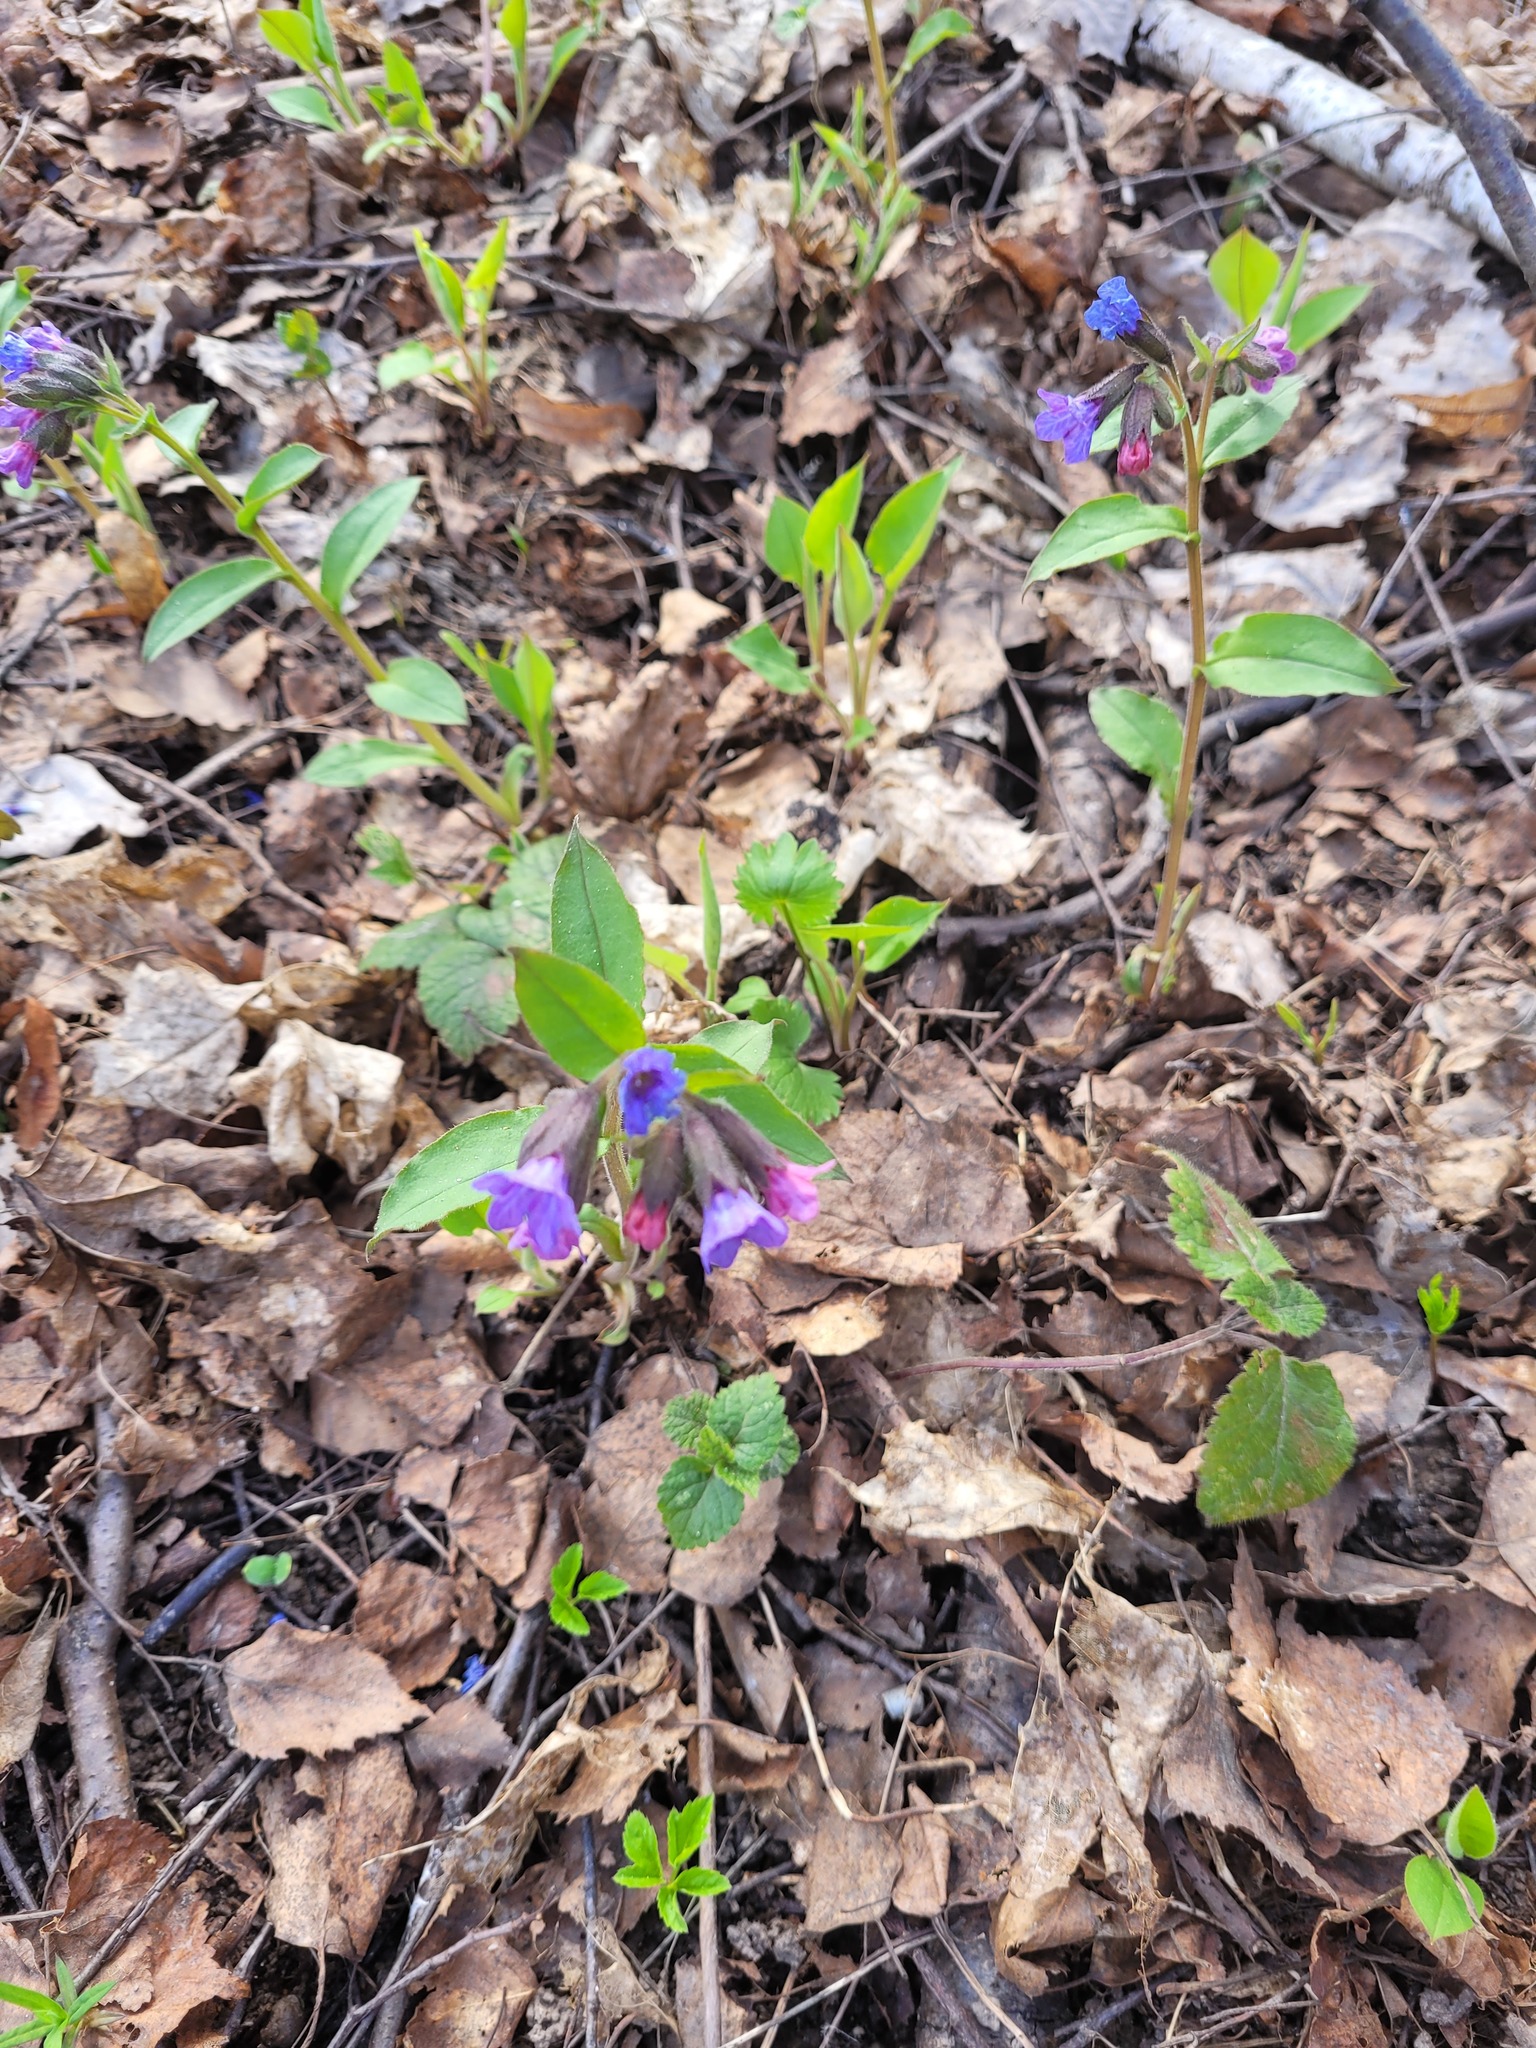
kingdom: Plantae
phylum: Tracheophyta
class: Magnoliopsida
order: Boraginales
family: Boraginaceae
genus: Pulmonaria
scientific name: Pulmonaria obscura
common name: Suffolk lungwort
